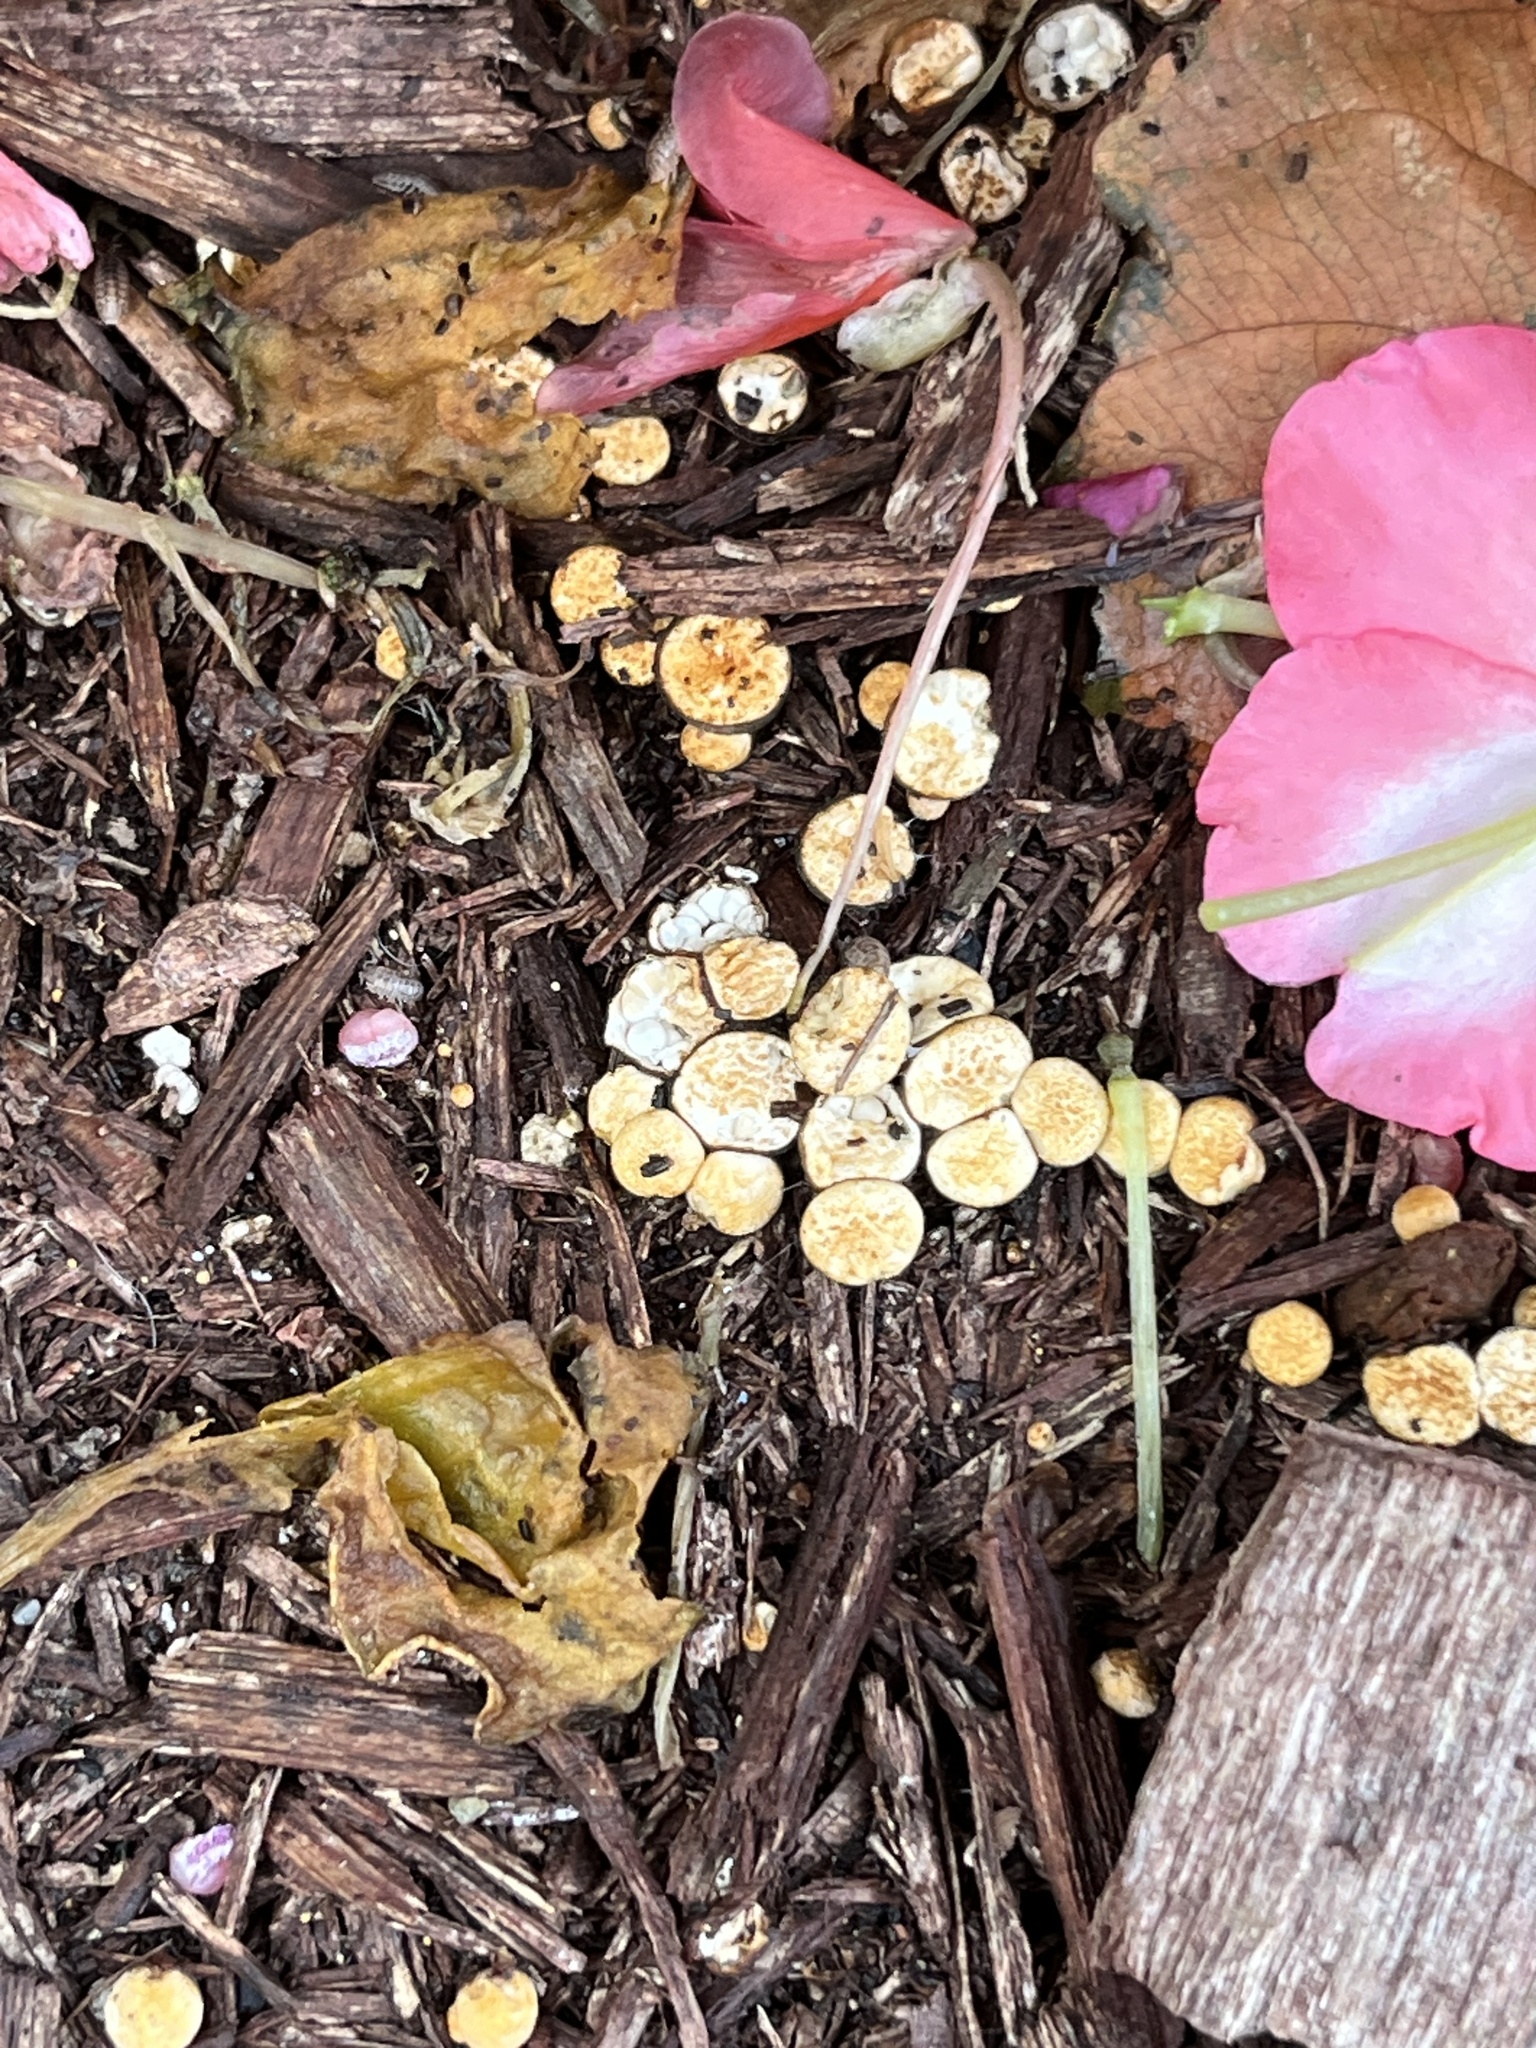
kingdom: Fungi
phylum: Basidiomycota
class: Agaricomycetes
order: Agaricales
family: Nidulariaceae
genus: Crucibulum
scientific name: Crucibulum laeve
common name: Common bird's nest
